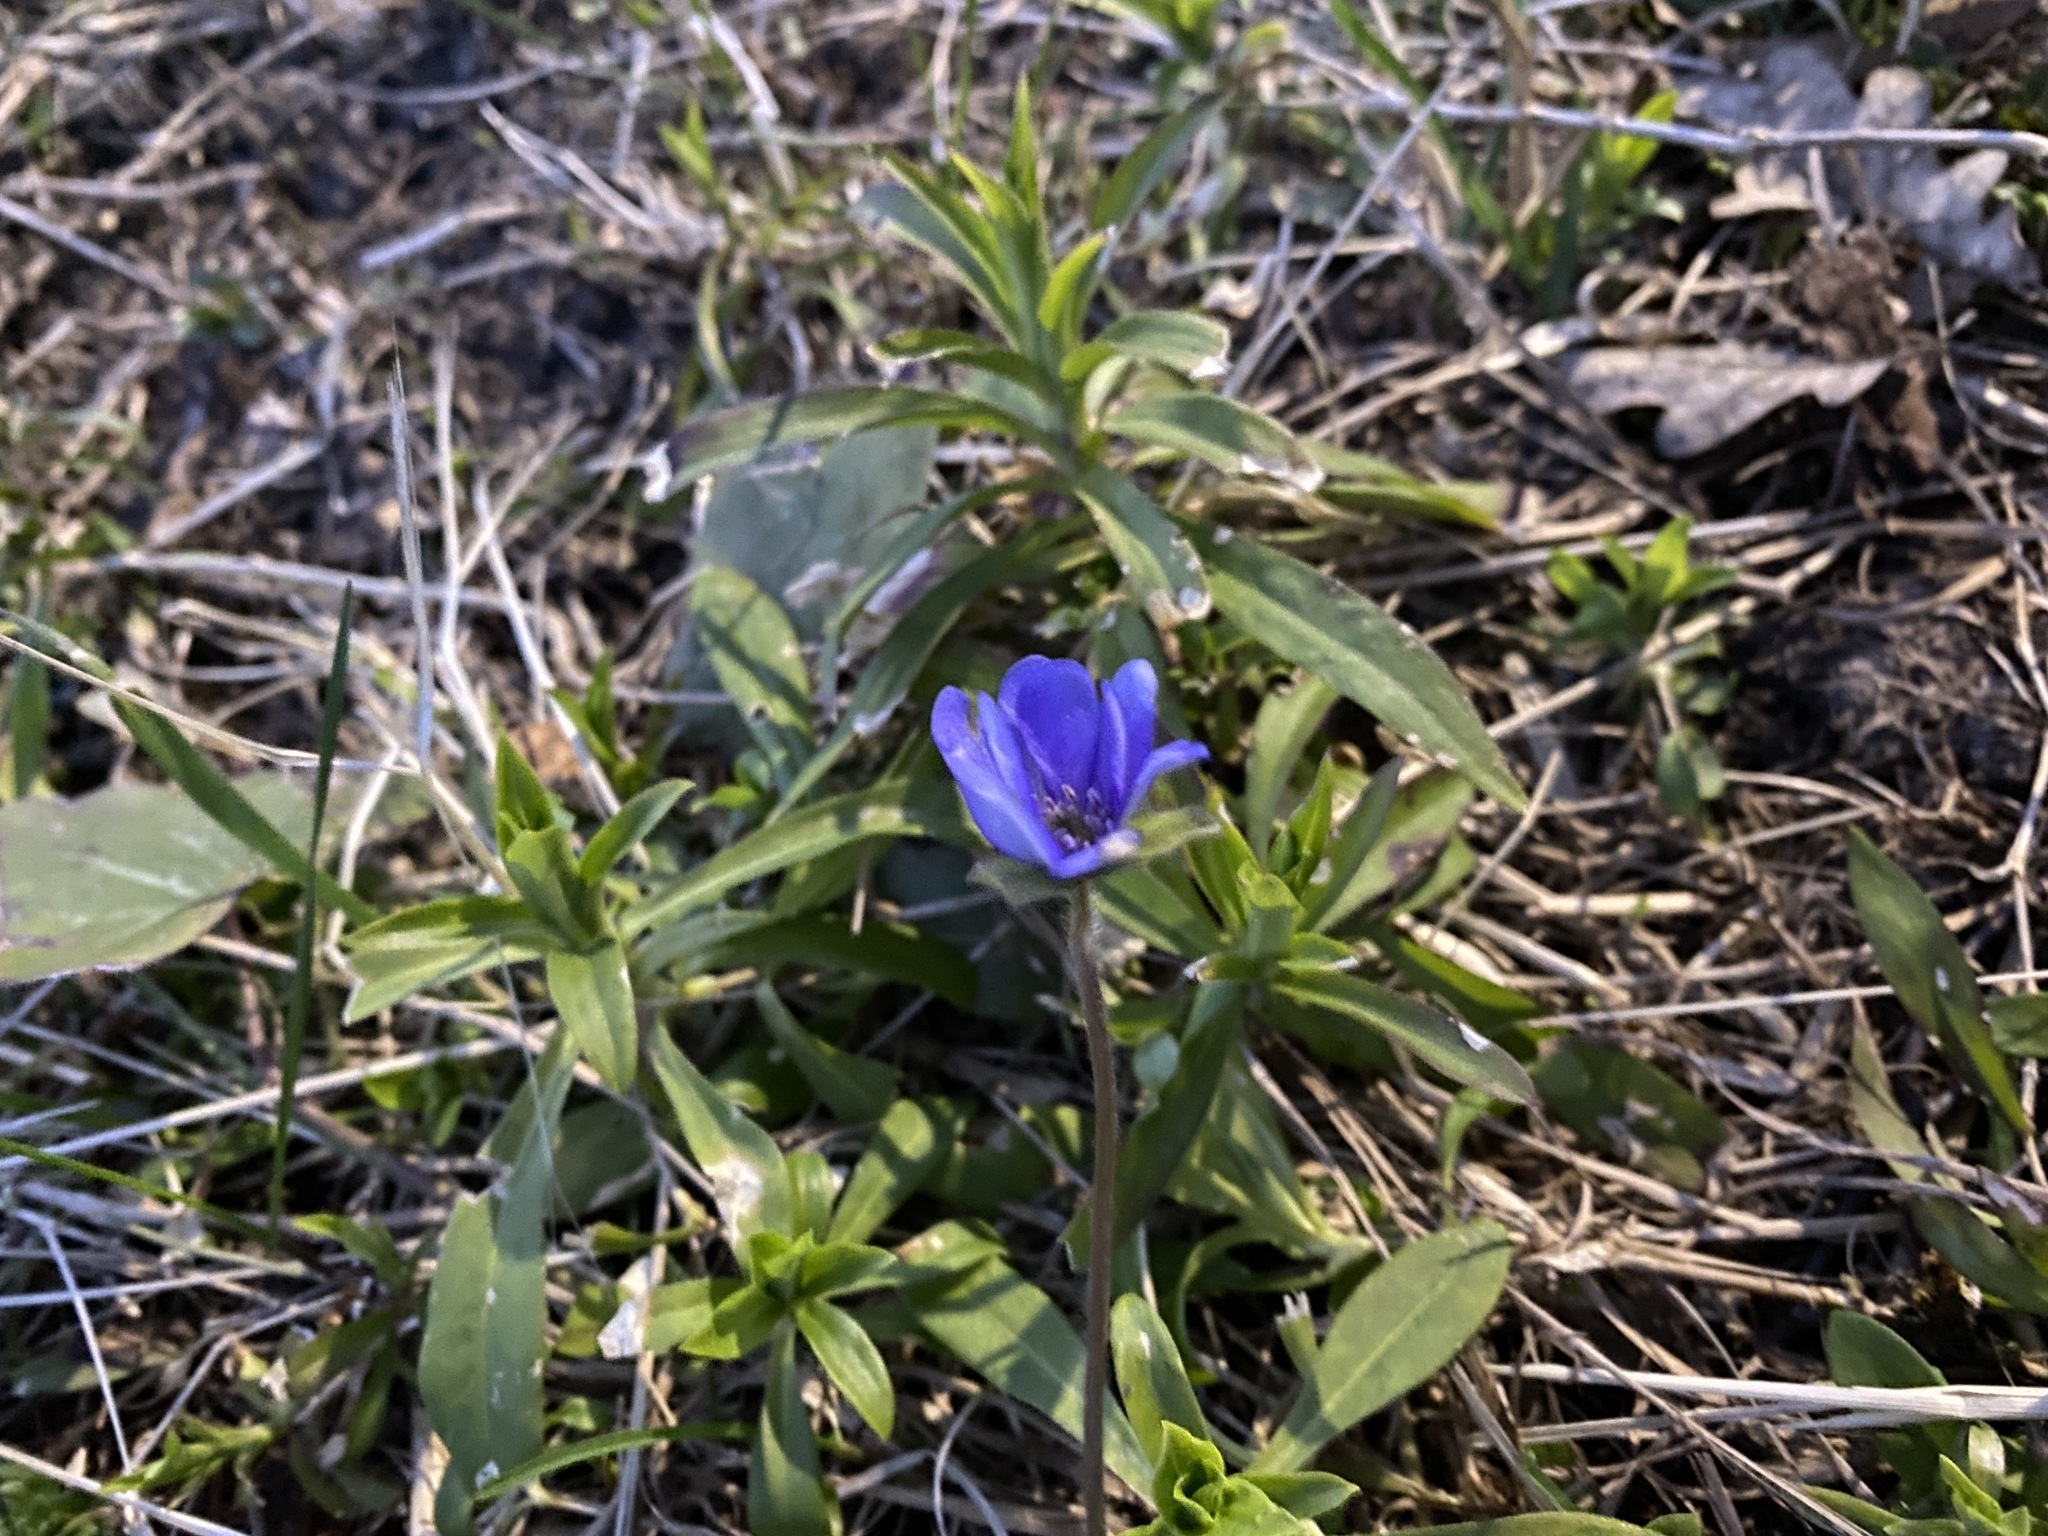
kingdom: Plantae
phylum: Tracheophyta
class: Magnoliopsida
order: Ranunculales
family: Ranunculaceae
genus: Hepatica
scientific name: Hepatica nobilis
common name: Liverleaf
